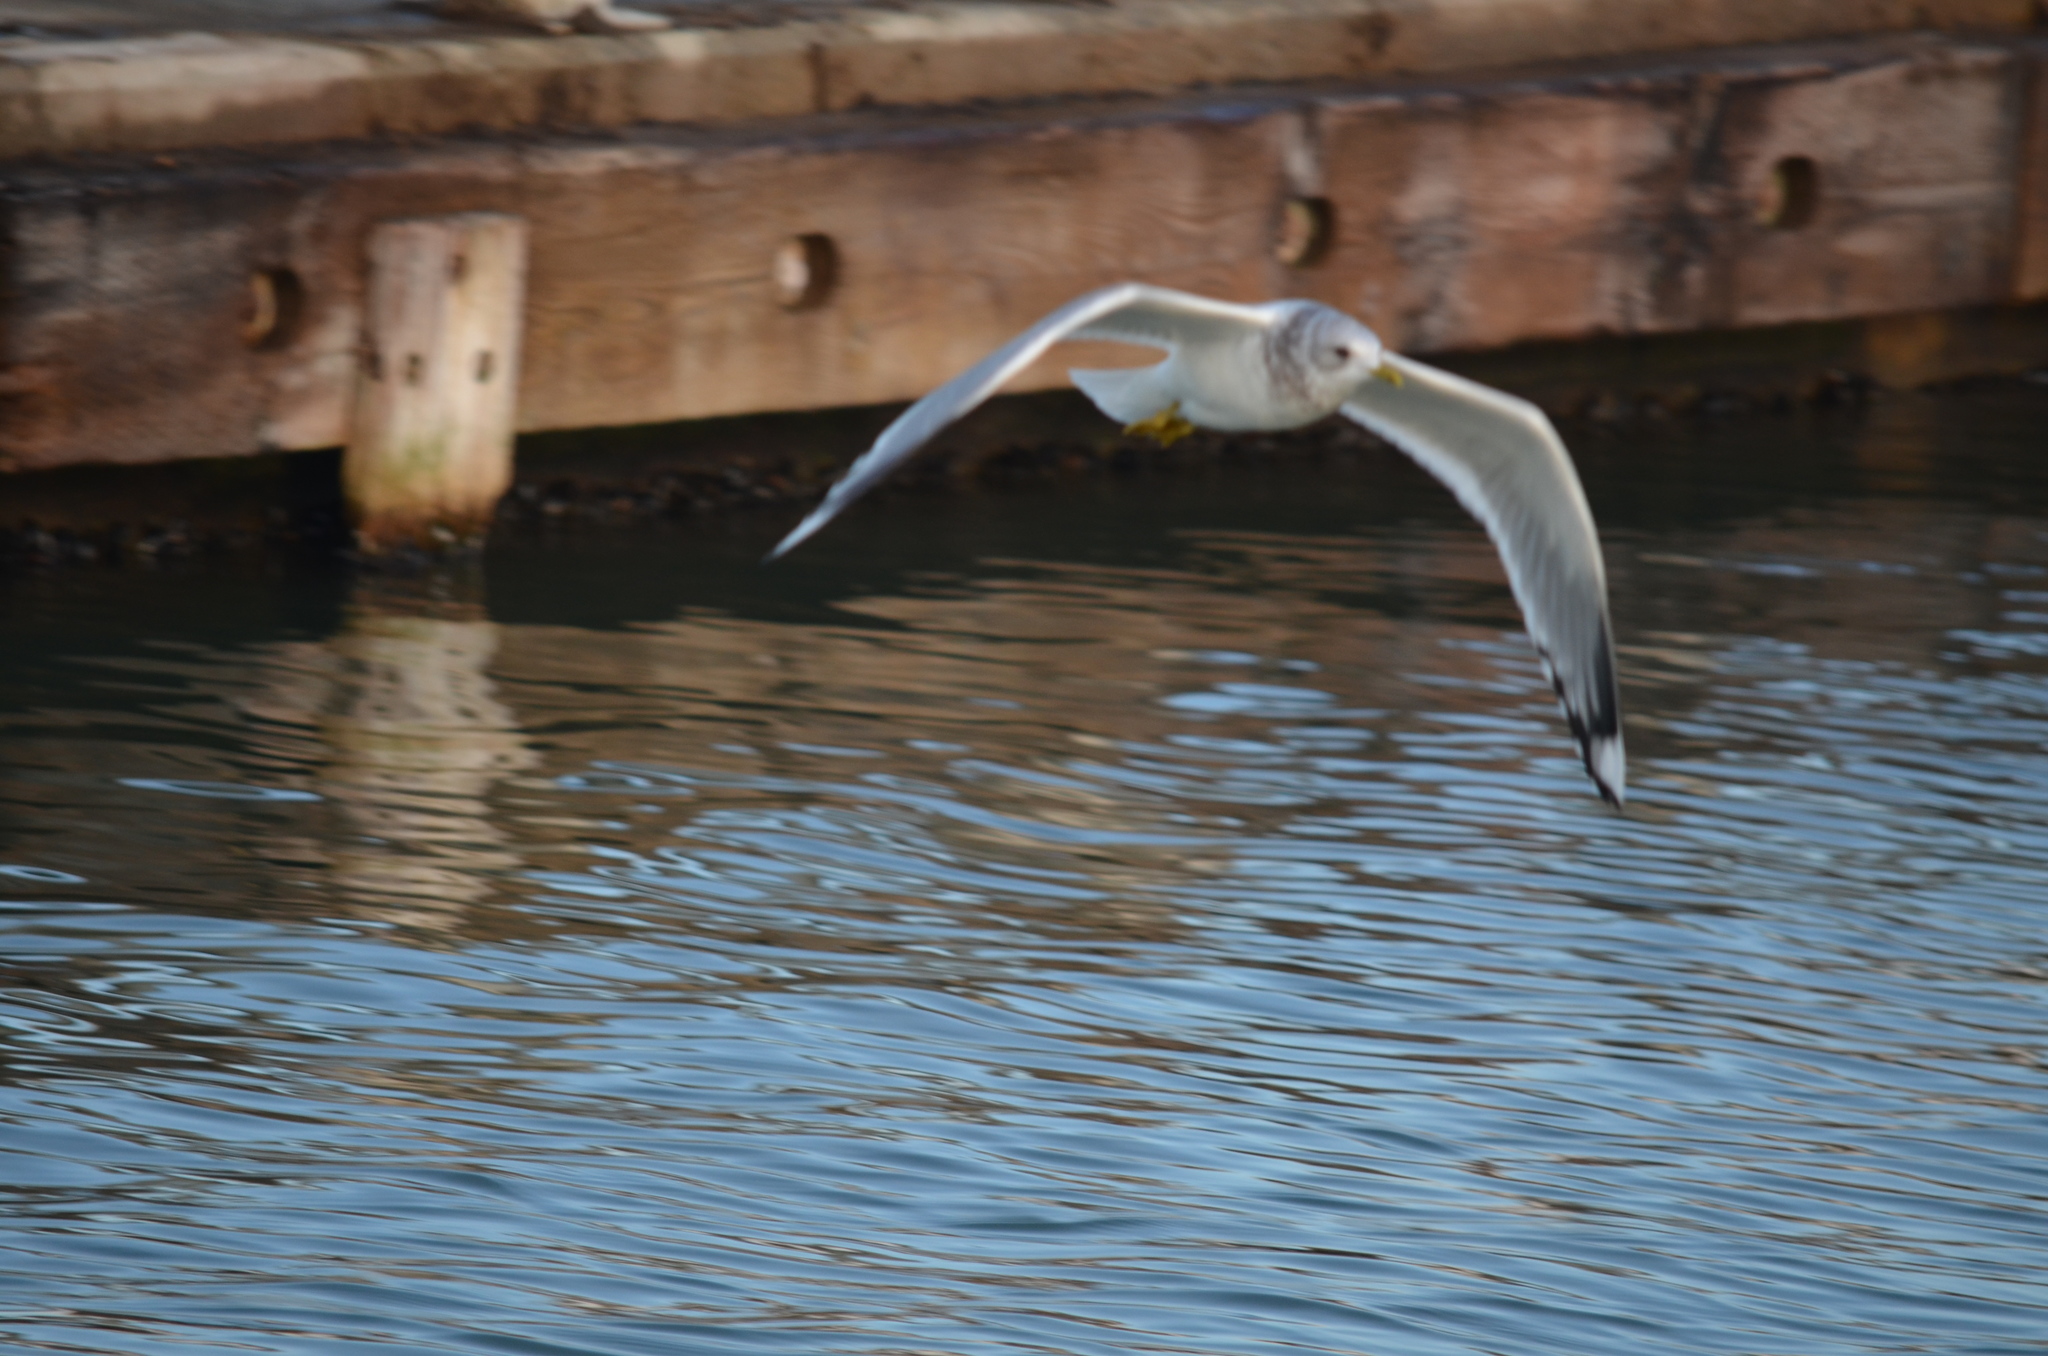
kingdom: Animalia
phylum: Chordata
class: Aves
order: Charadriiformes
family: Laridae
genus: Larus
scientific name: Larus brachyrhynchus
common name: Short-billed gull
